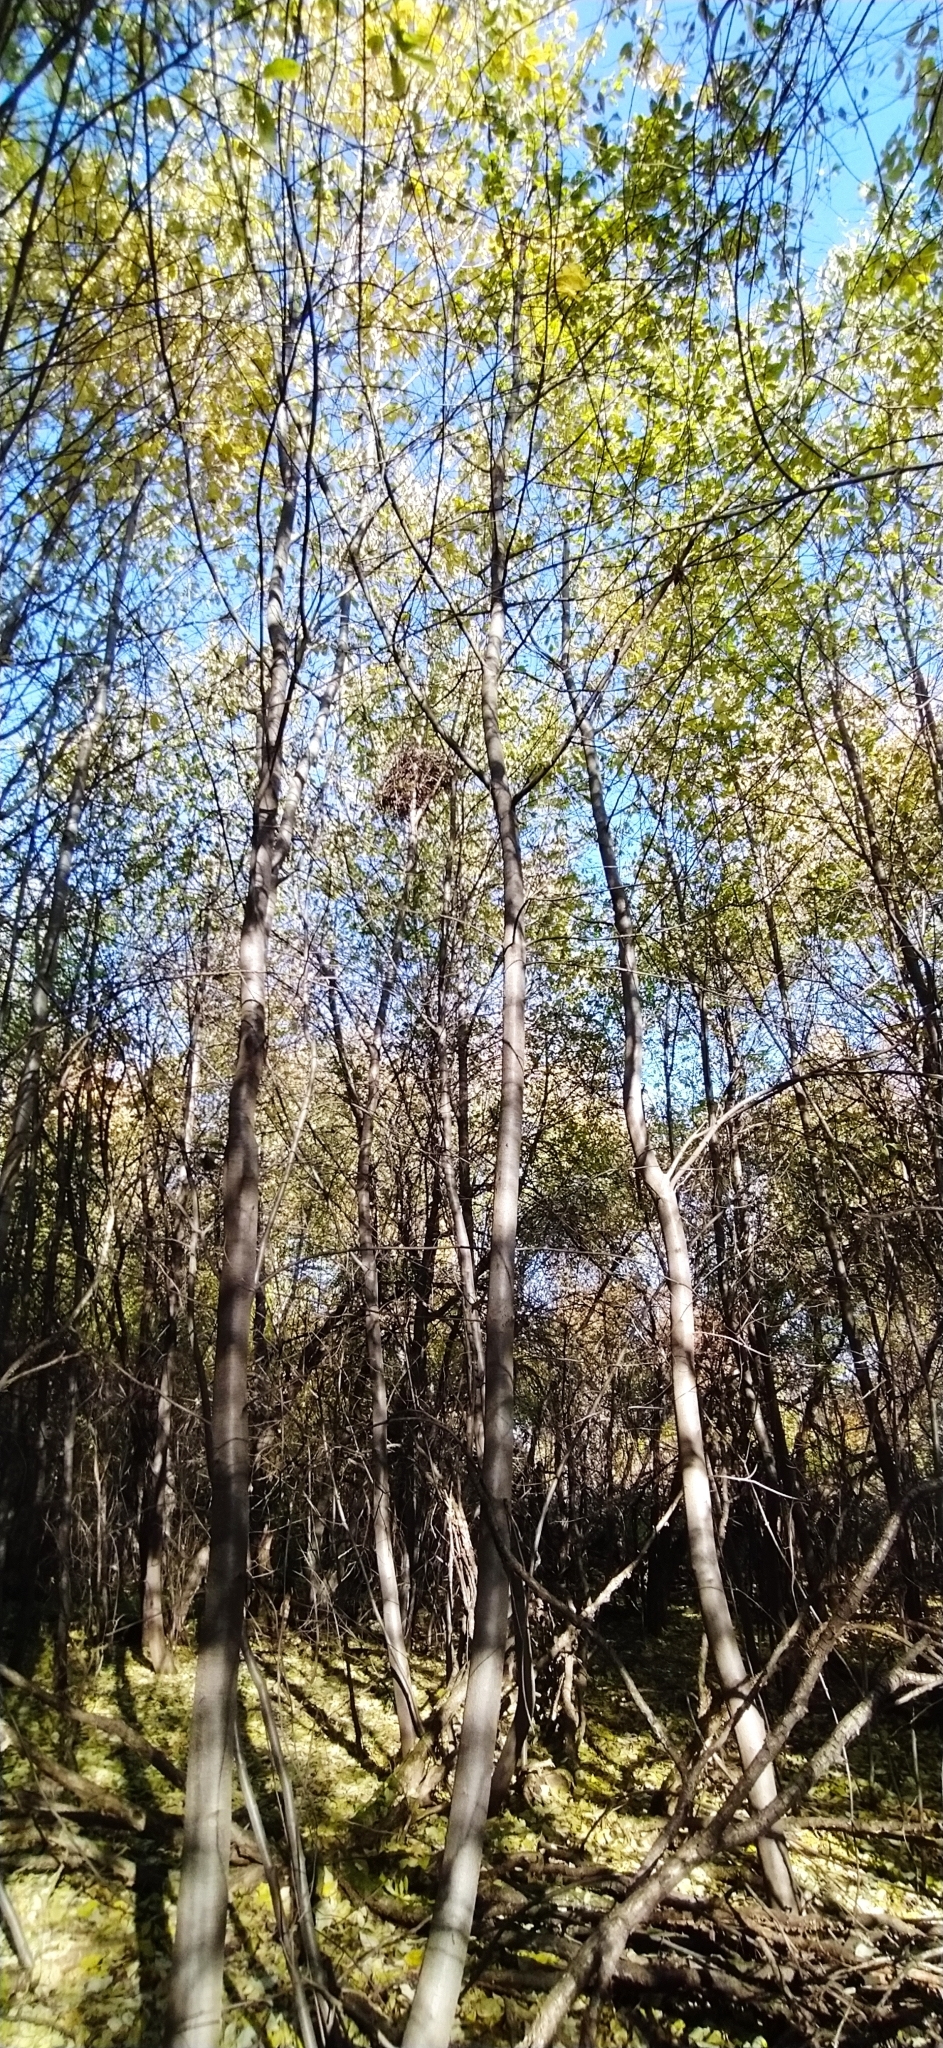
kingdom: Plantae
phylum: Tracheophyta
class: Magnoliopsida
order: Rosales
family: Rosaceae
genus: Prunus
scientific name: Prunus padus
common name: Bird cherry
